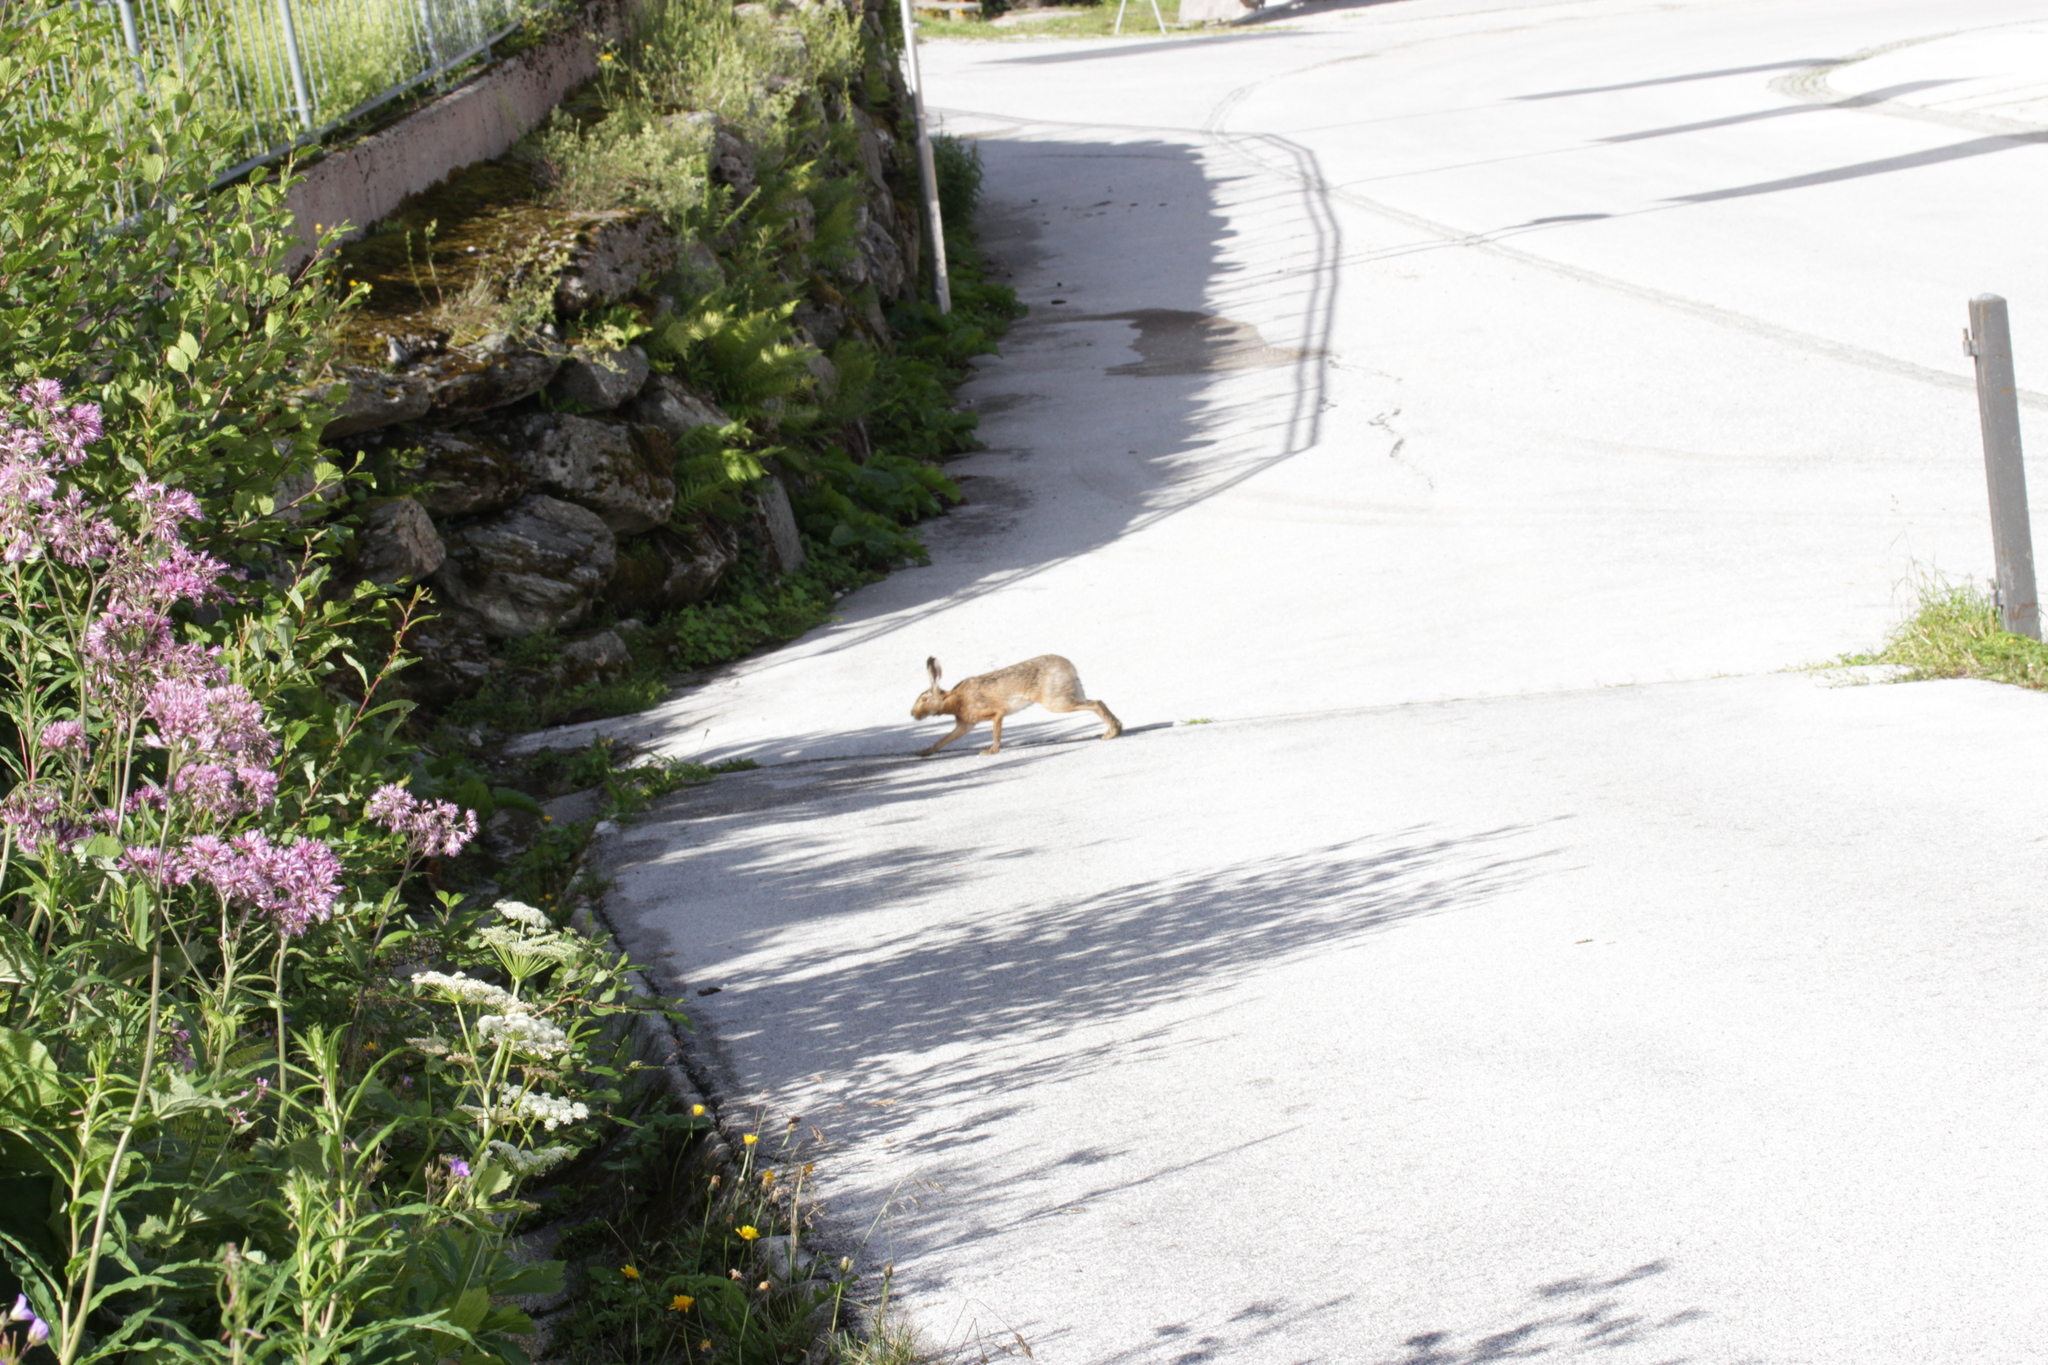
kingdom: Animalia
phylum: Chordata
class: Mammalia
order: Lagomorpha
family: Leporidae
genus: Lepus
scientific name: Lepus europaeus
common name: European hare
